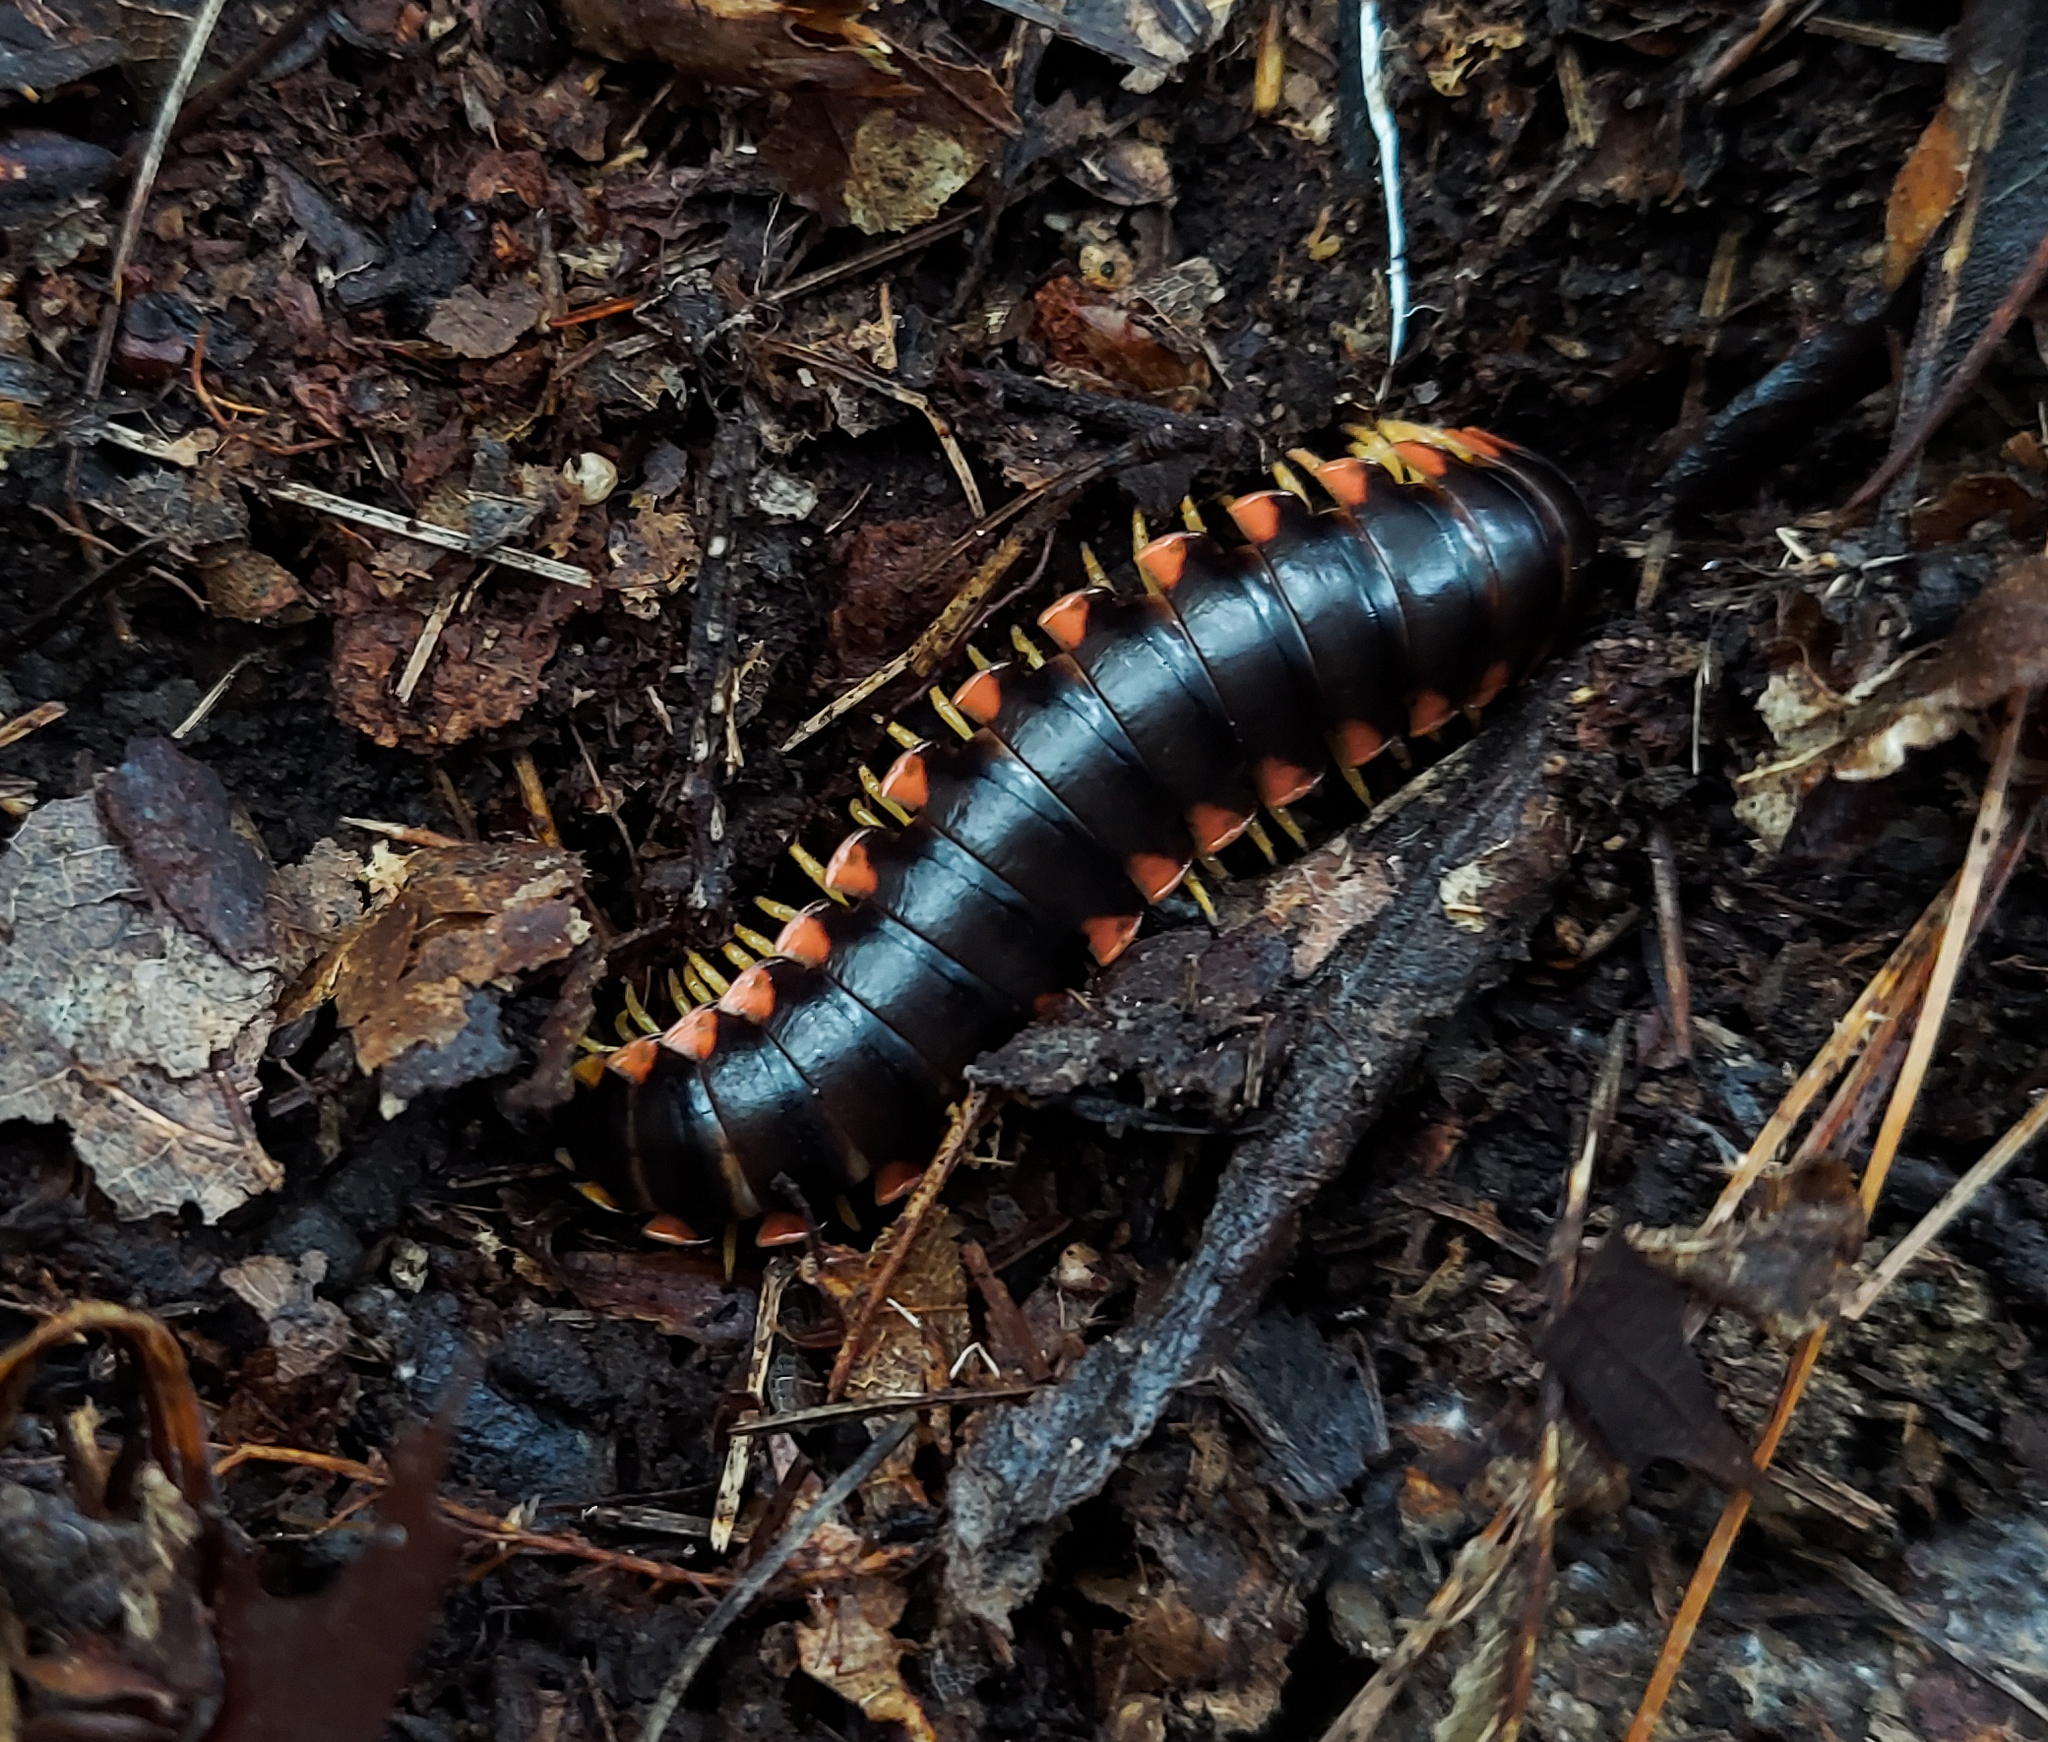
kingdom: Animalia
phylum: Arthropoda
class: Diplopoda
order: Polydesmida
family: Xystodesmidae
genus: Sigmoria
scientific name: Sigmoria stenoloba
